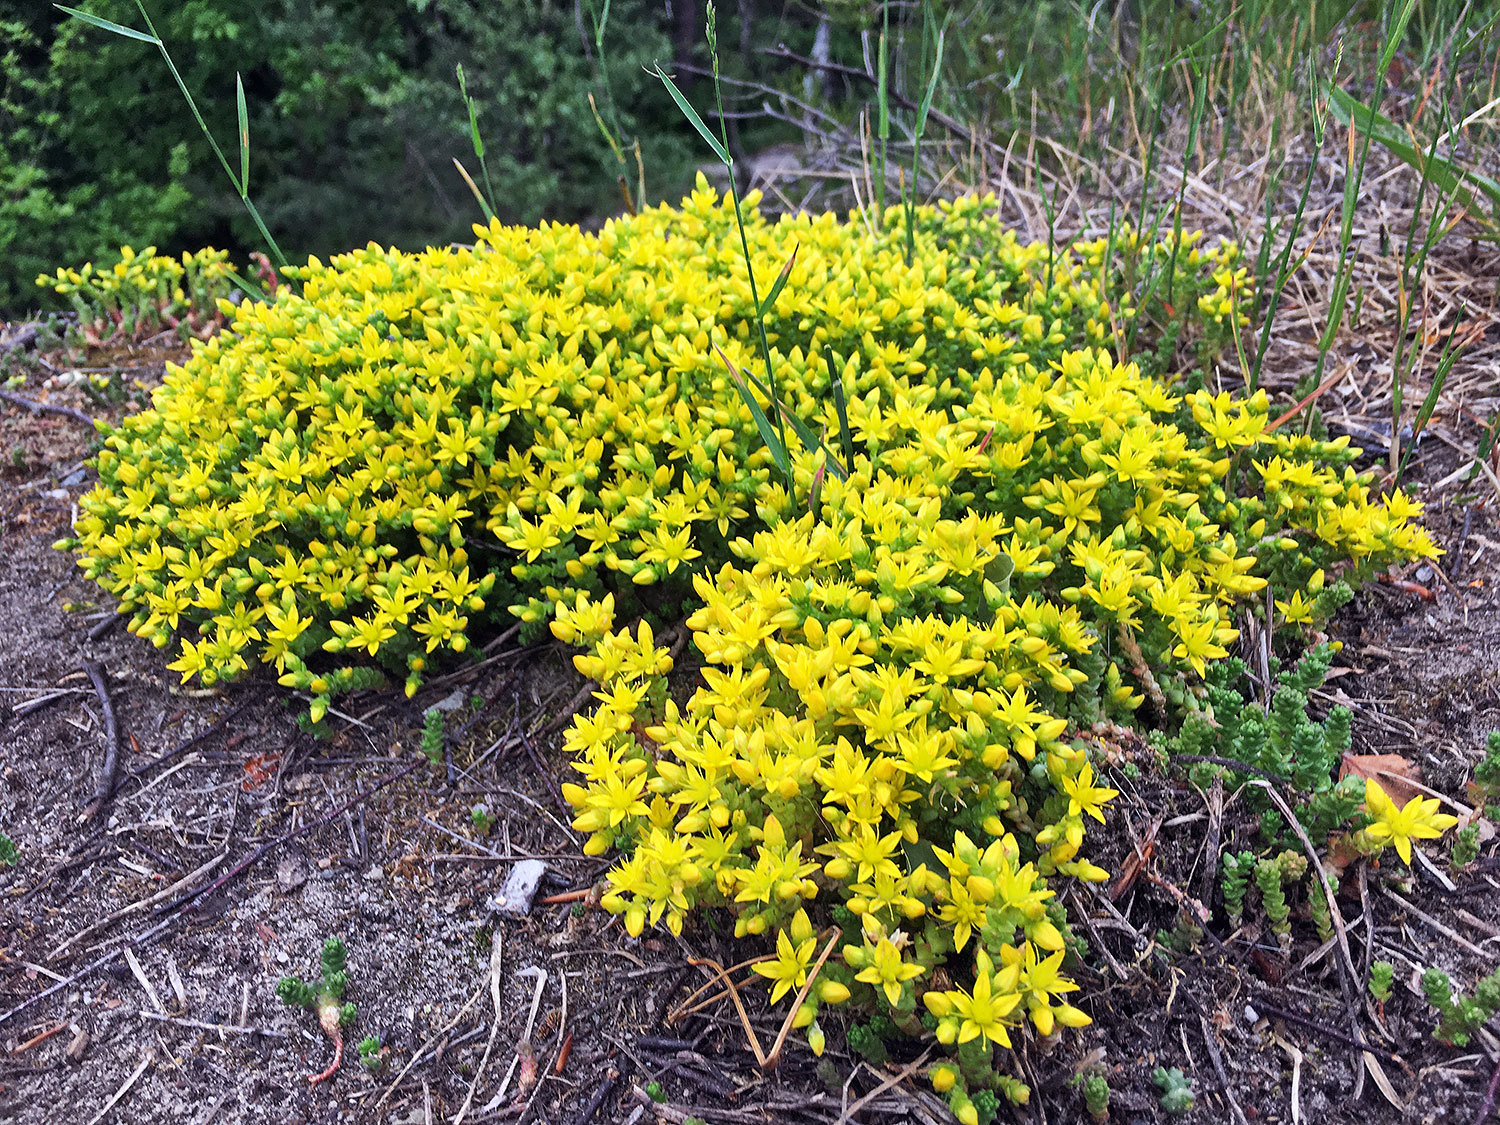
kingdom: Plantae
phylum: Tracheophyta
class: Magnoliopsida
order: Saxifragales
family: Crassulaceae
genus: Sedum
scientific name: Sedum acre
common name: Biting stonecrop
